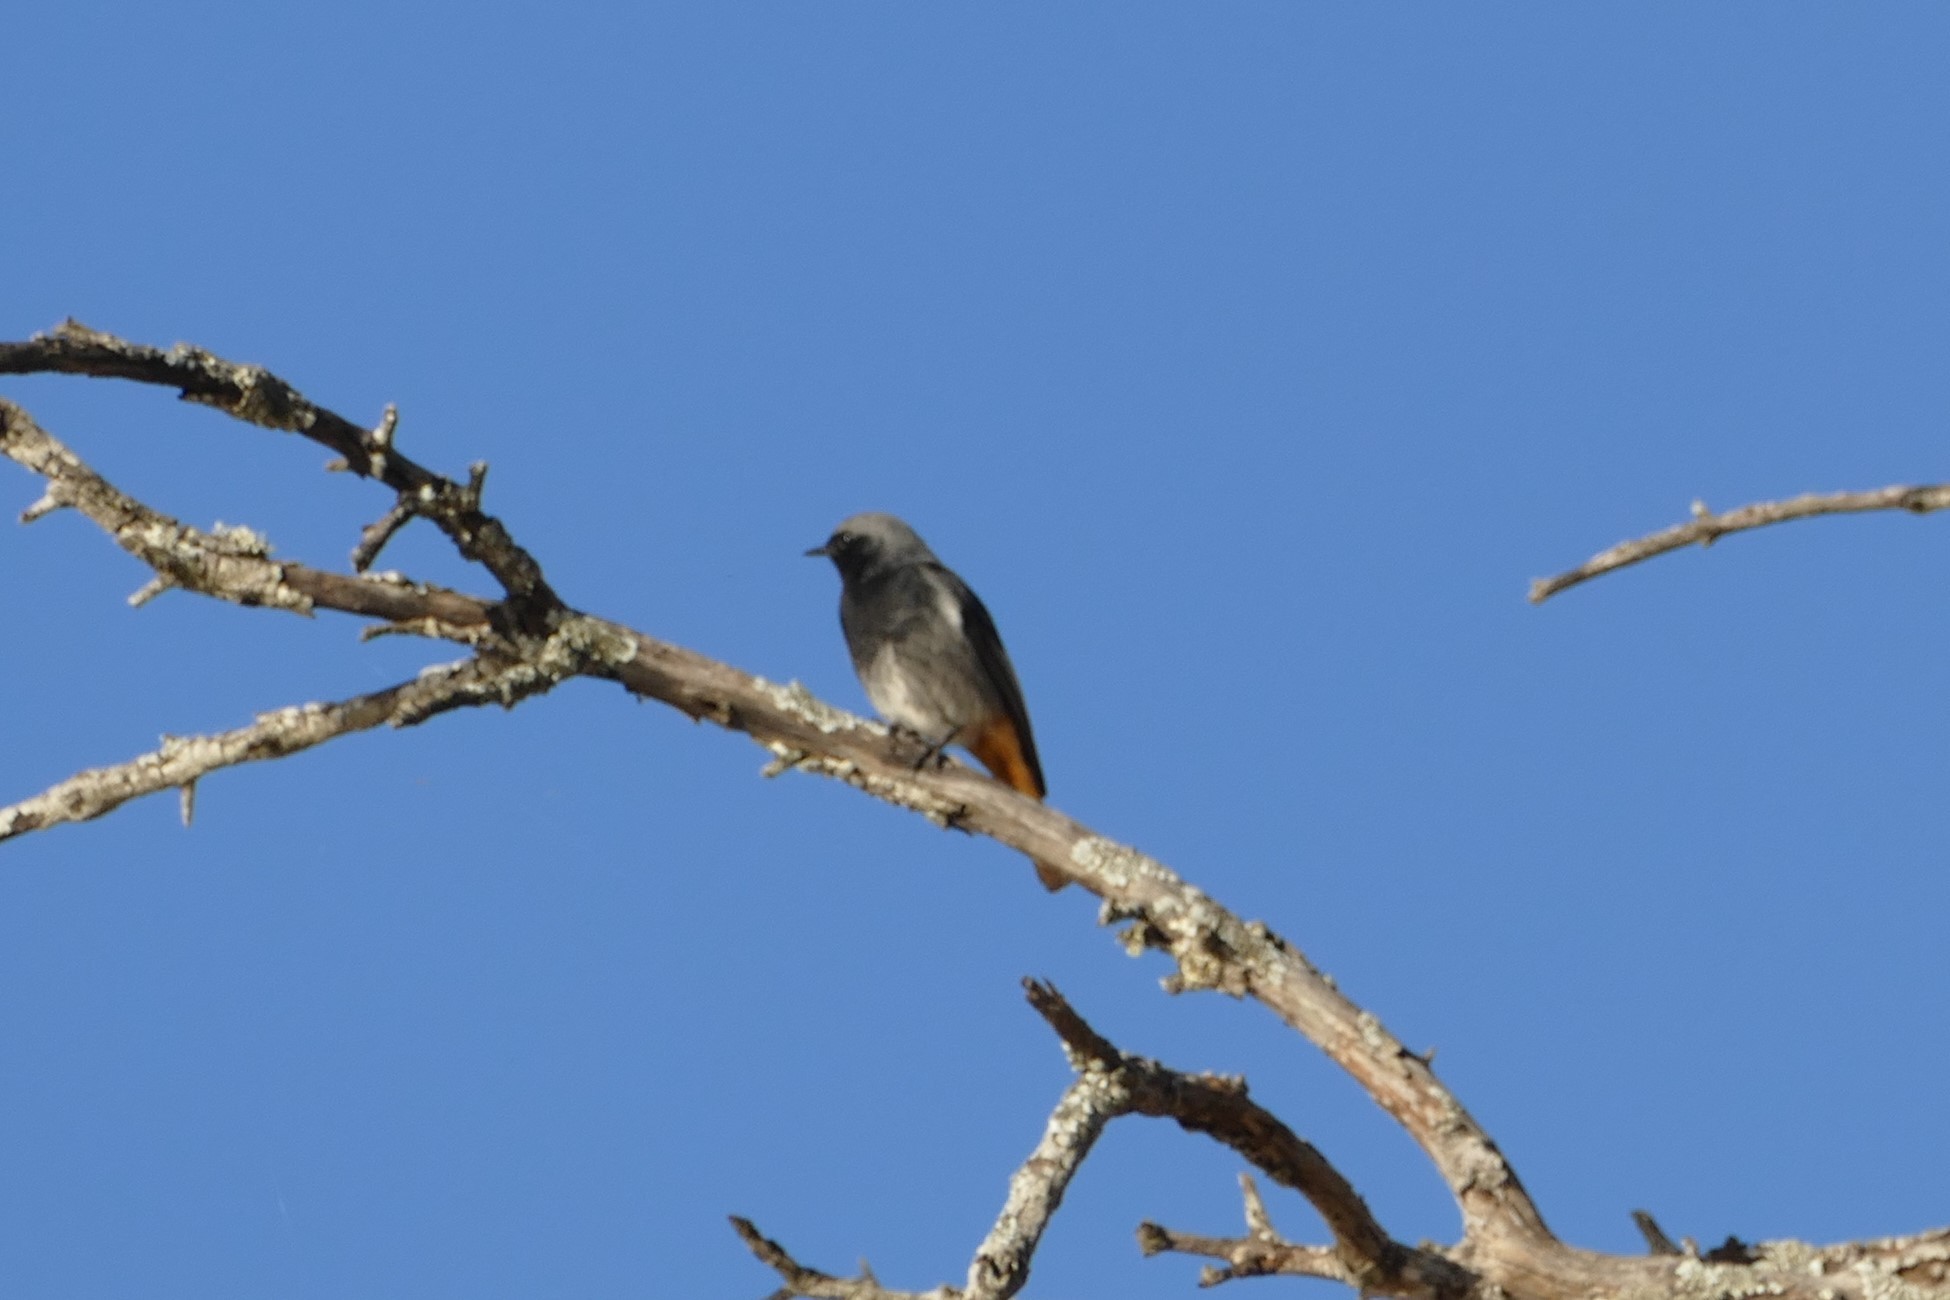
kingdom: Animalia
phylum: Chordata
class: Aves
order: Passeriformes
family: Muscicapidae
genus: Phoenicurus
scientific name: Phoenicurus ochruros
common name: Black redstart
